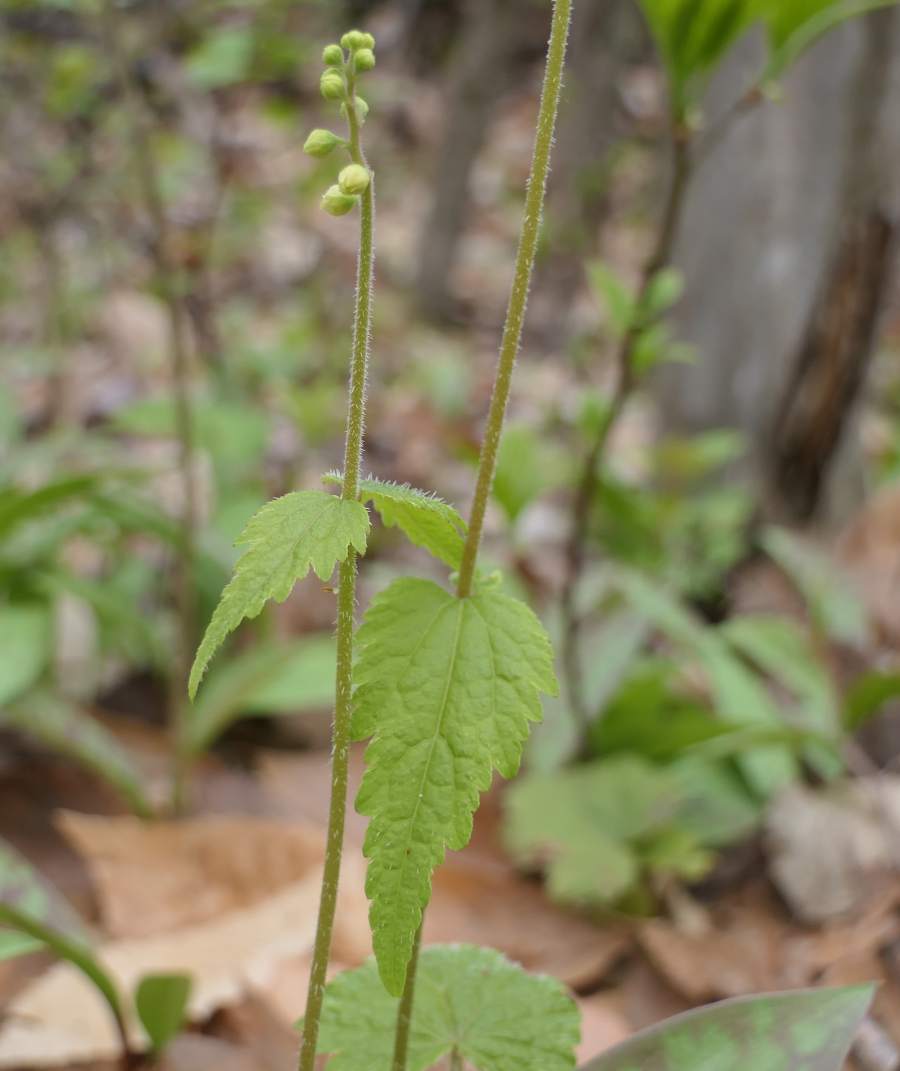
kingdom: Plantae
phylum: Tracheophyta
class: Magnoliopsida
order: Saxifragales
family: Saxifragaceae
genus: Mitella
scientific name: Mitella diphylla
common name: Coolwort
